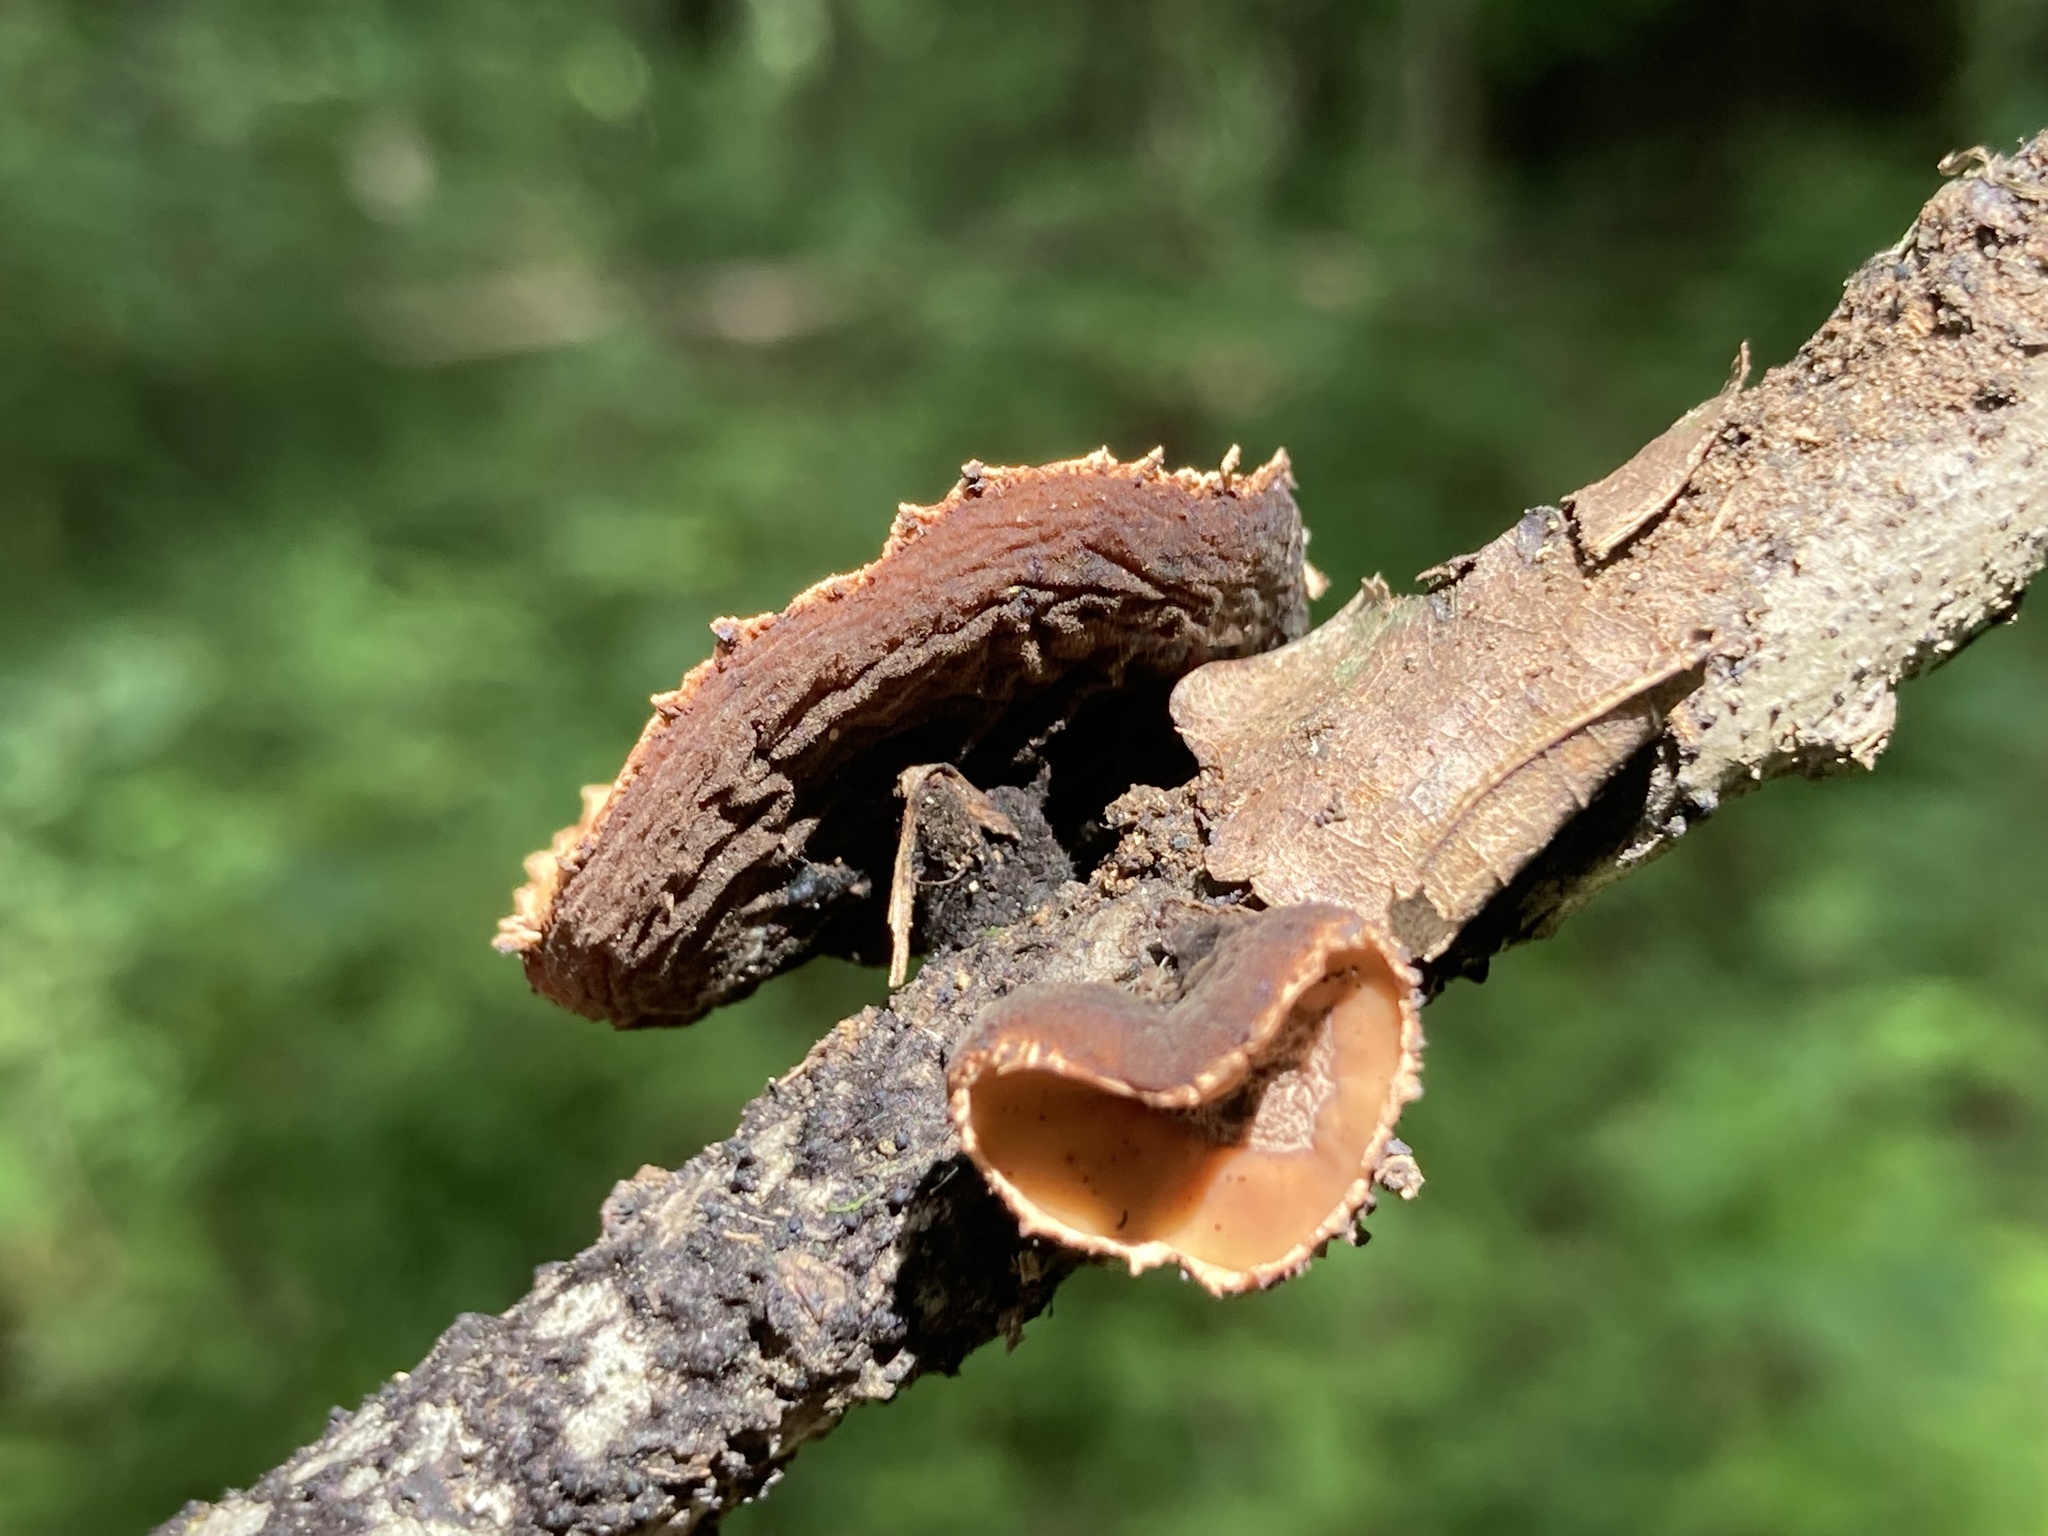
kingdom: Fungi
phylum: Ascomycota
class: Pezizomycetes
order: Pezizales
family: Sarcosomataceae
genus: Galiella
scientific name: Galiella rufa
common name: Hairy rubber cup
